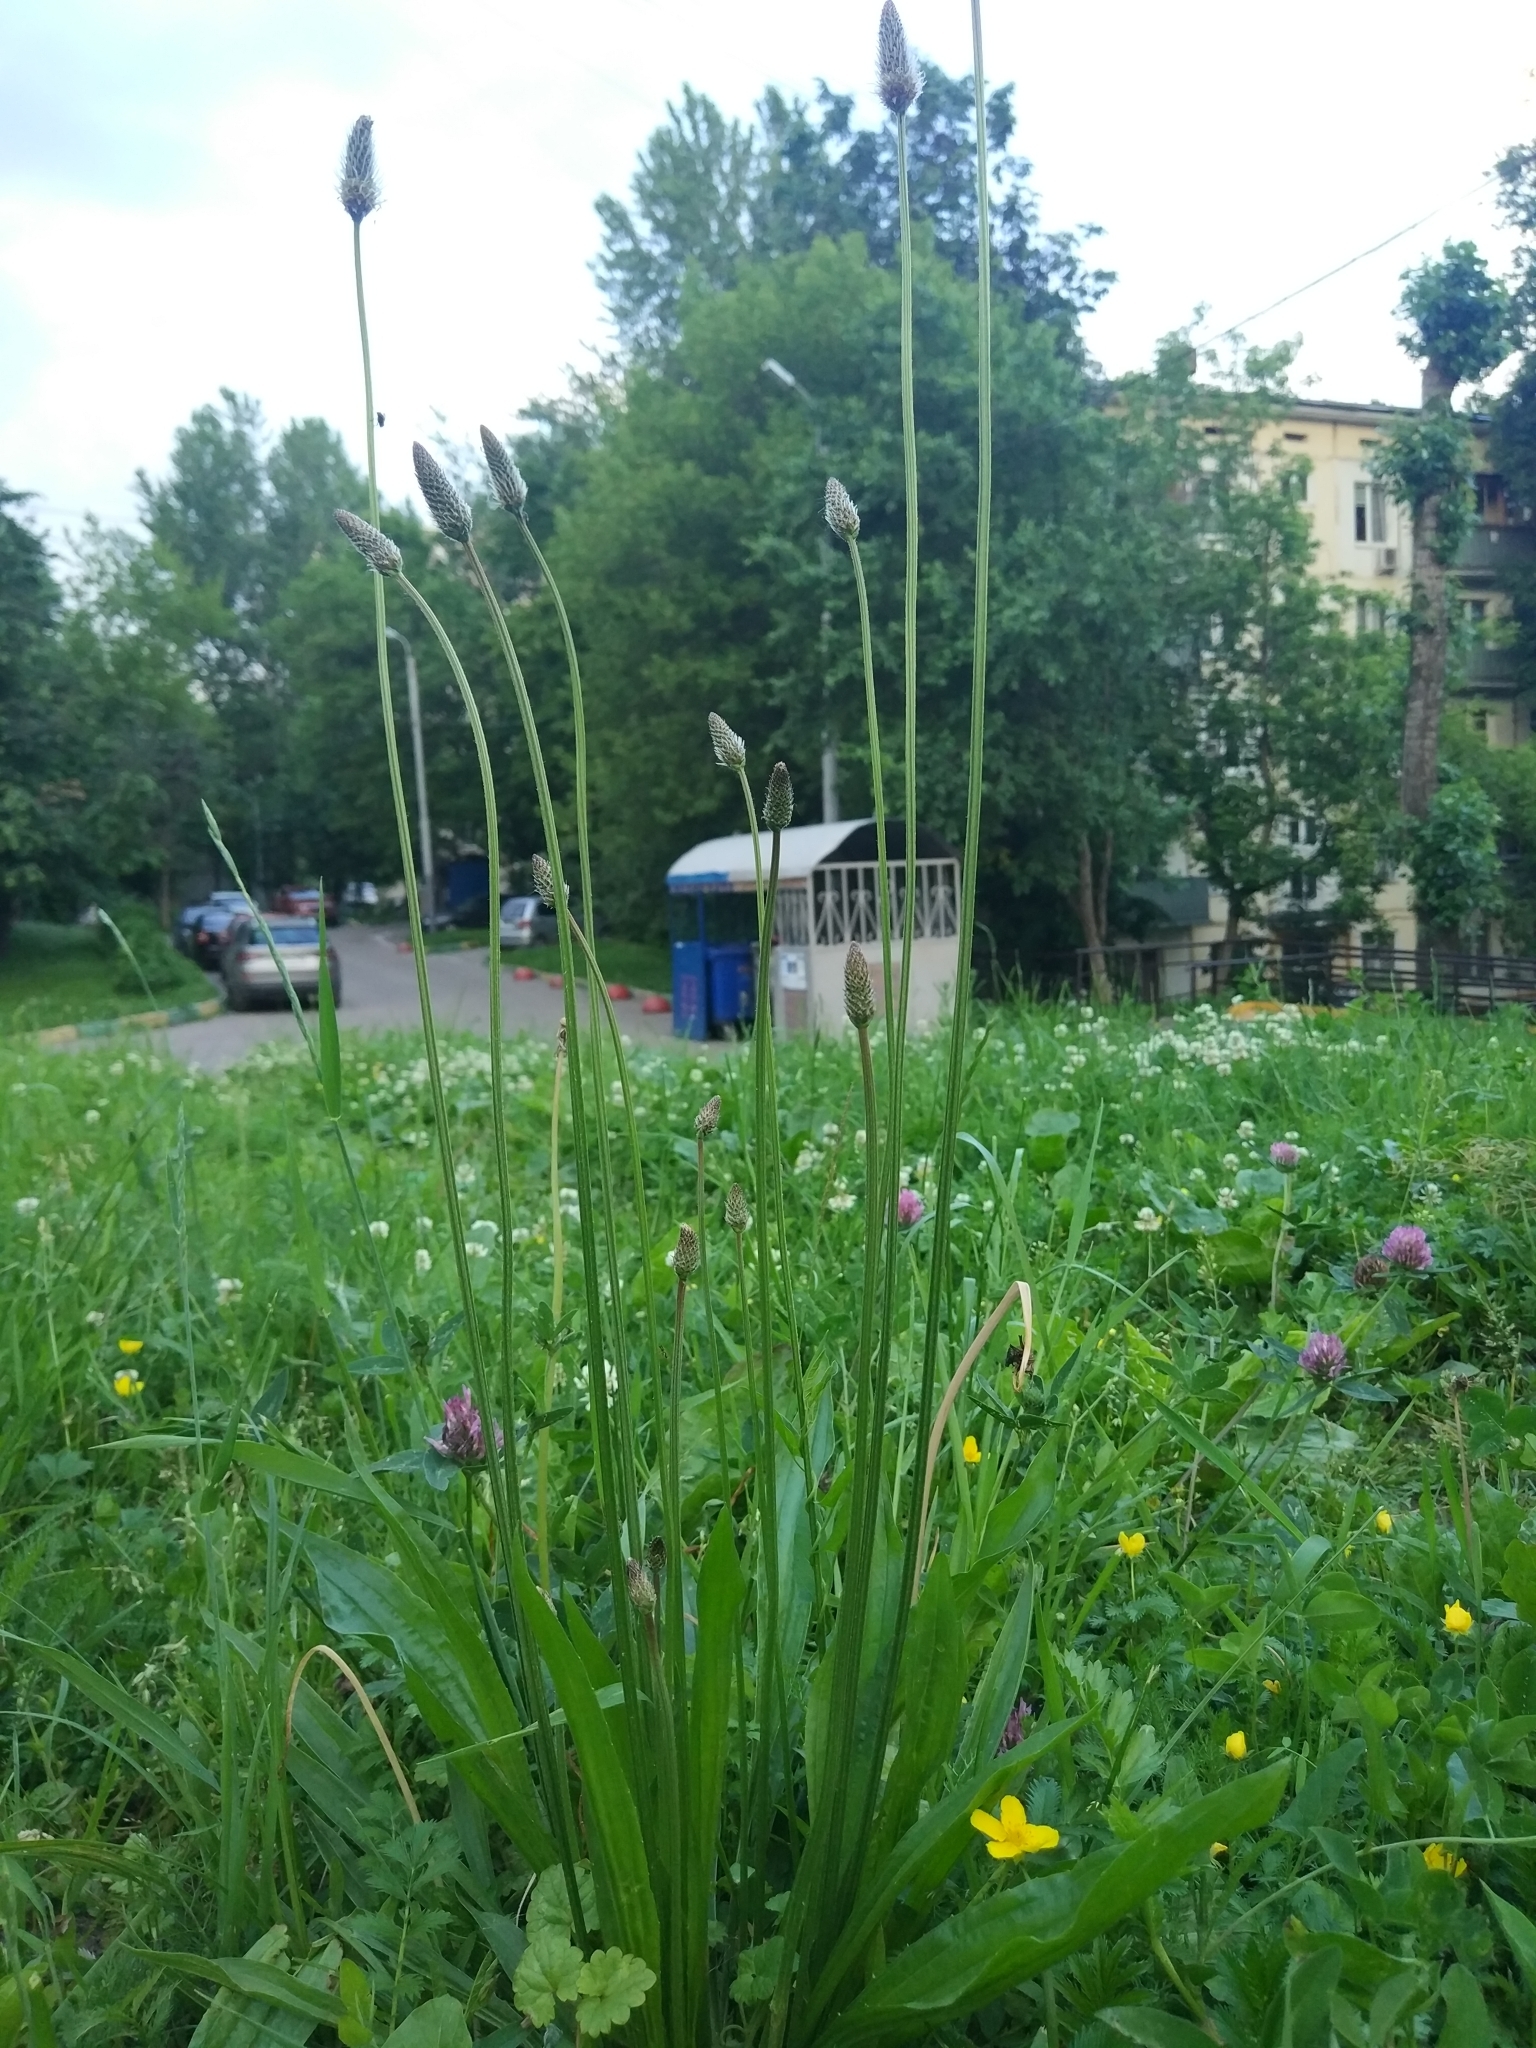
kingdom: Plantae
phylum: Tracheophyta
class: Magnoliopsida
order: Lamiales
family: Plantaginaceae
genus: Plantago
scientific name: Plantago lanceolata
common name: Ribwort plantain
